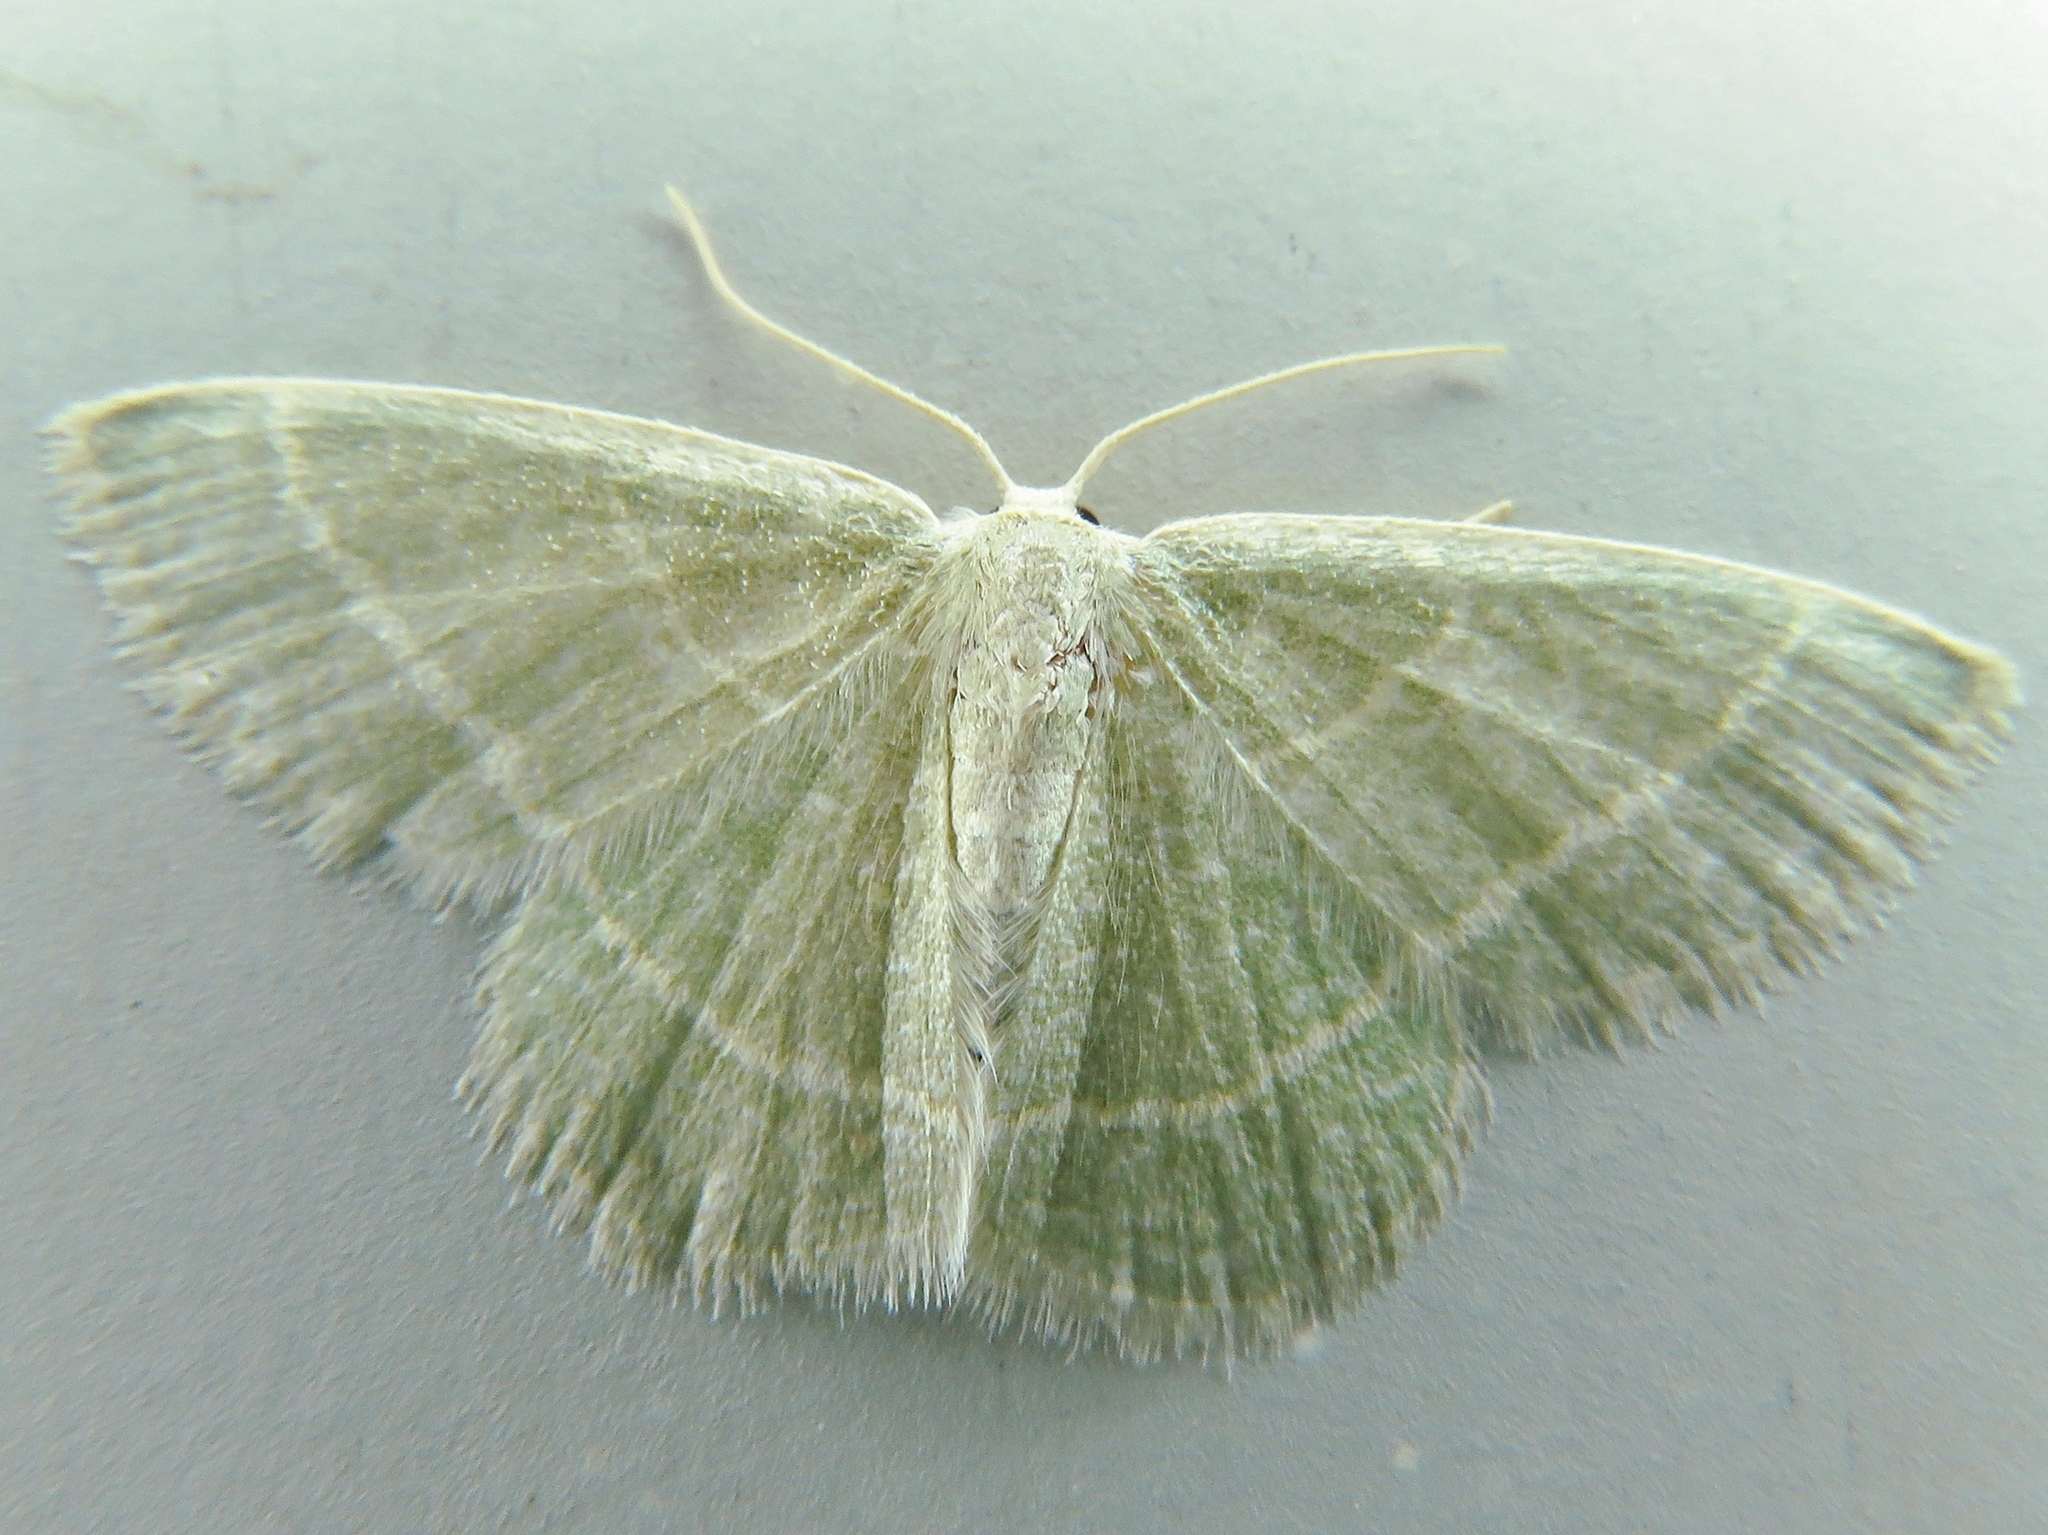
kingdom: Animalia
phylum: Arthropoda
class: Insecta
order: Lepidoptera
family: Geometridae
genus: Chlorochlamys
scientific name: Chlorochlamys phyllinaria
